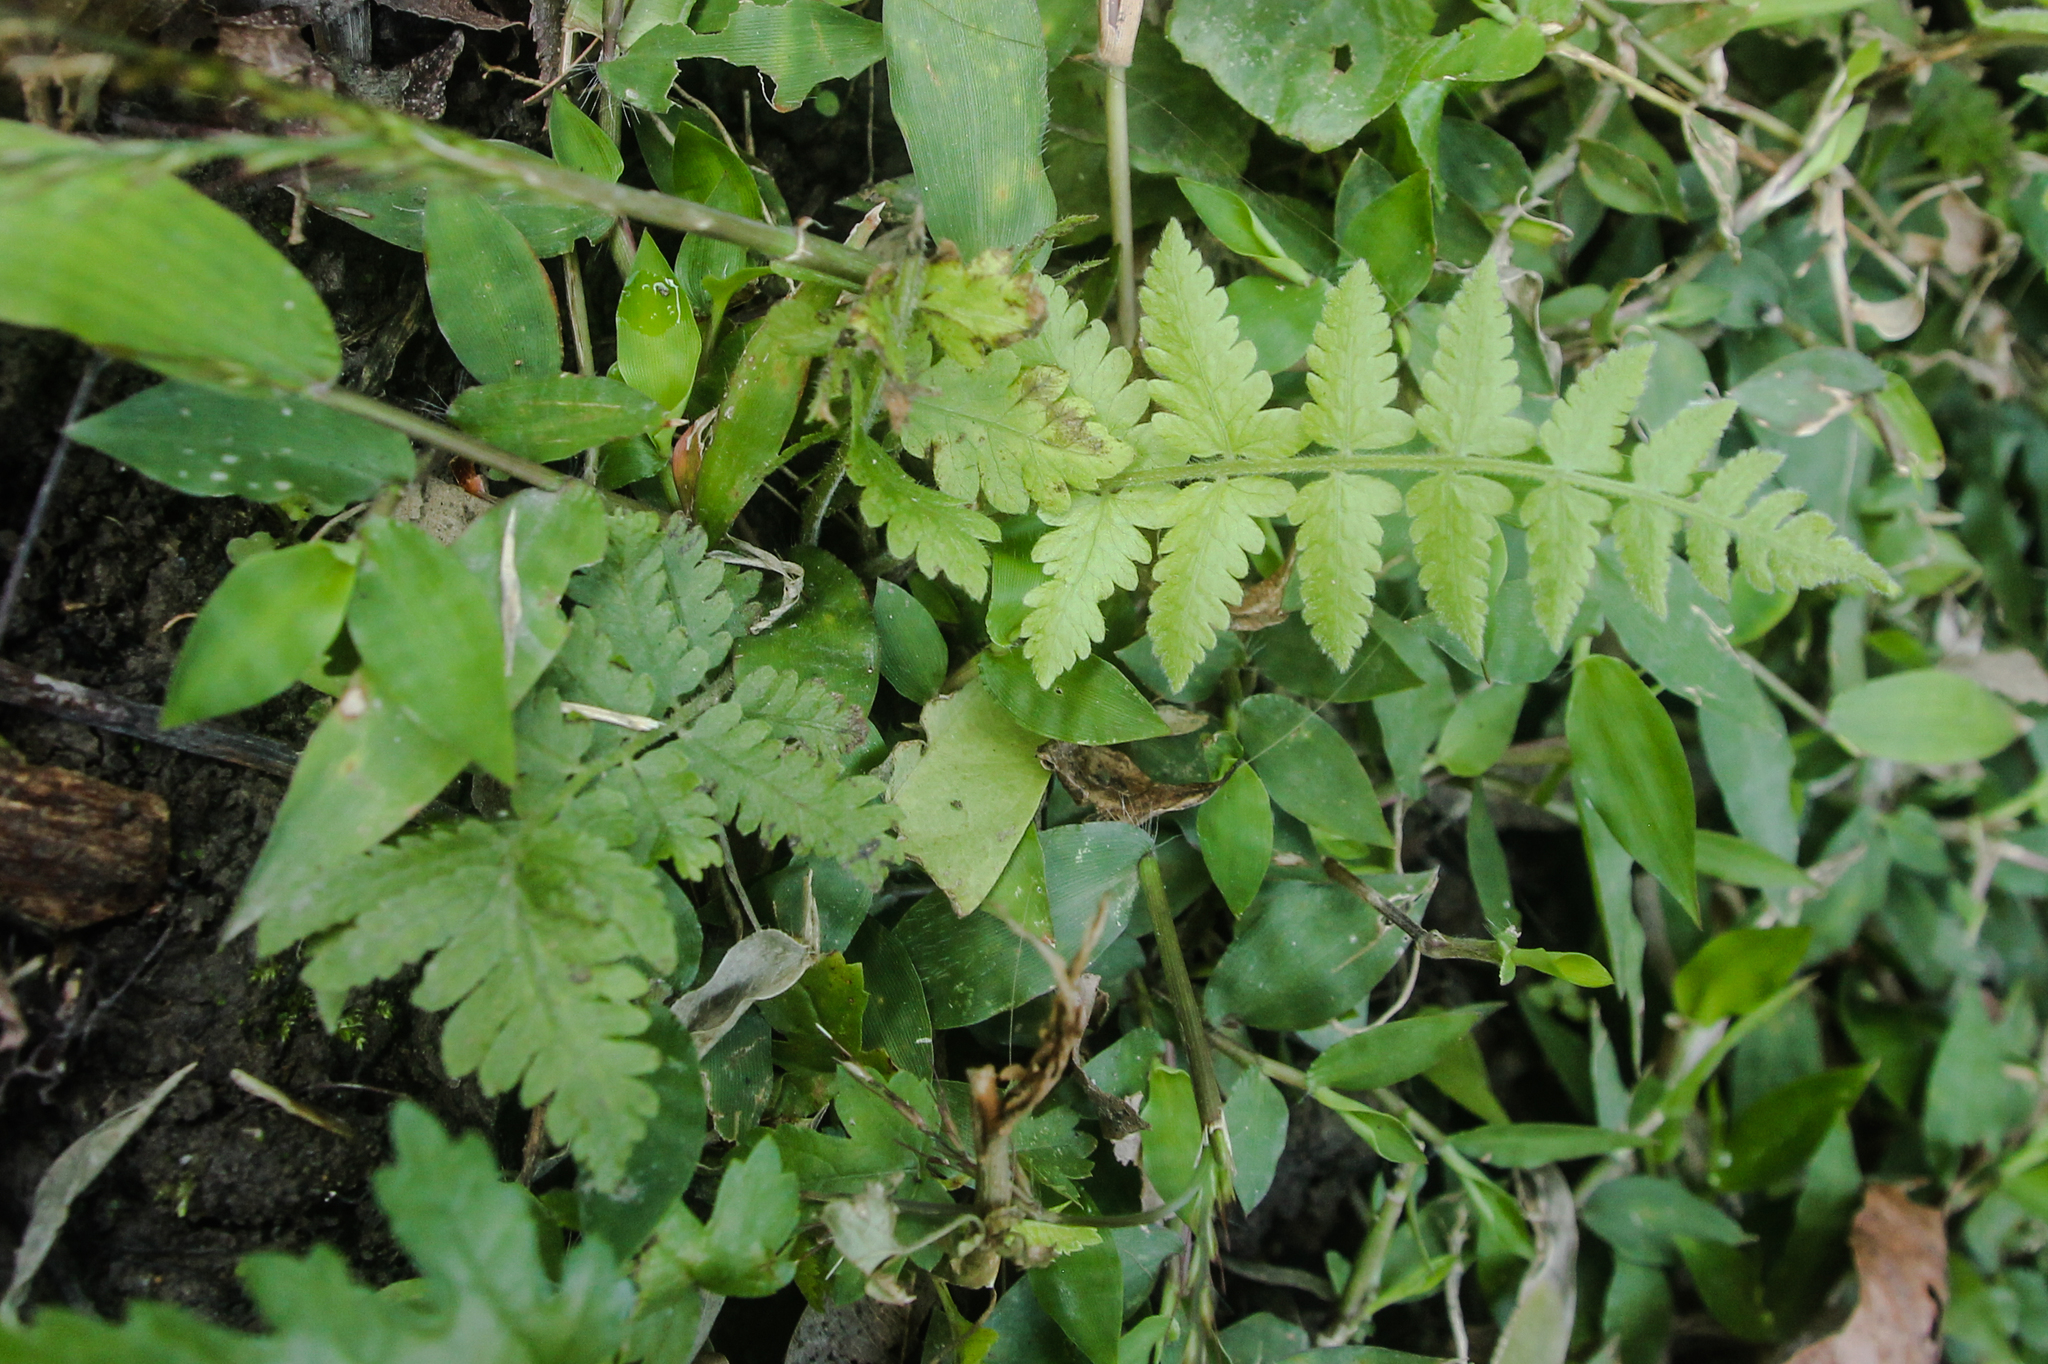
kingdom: Plantae
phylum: Tracheophyta
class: Polypodiopsida
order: Polypodiales
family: Thelypteridaceae
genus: Christella
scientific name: Christella parasitica
